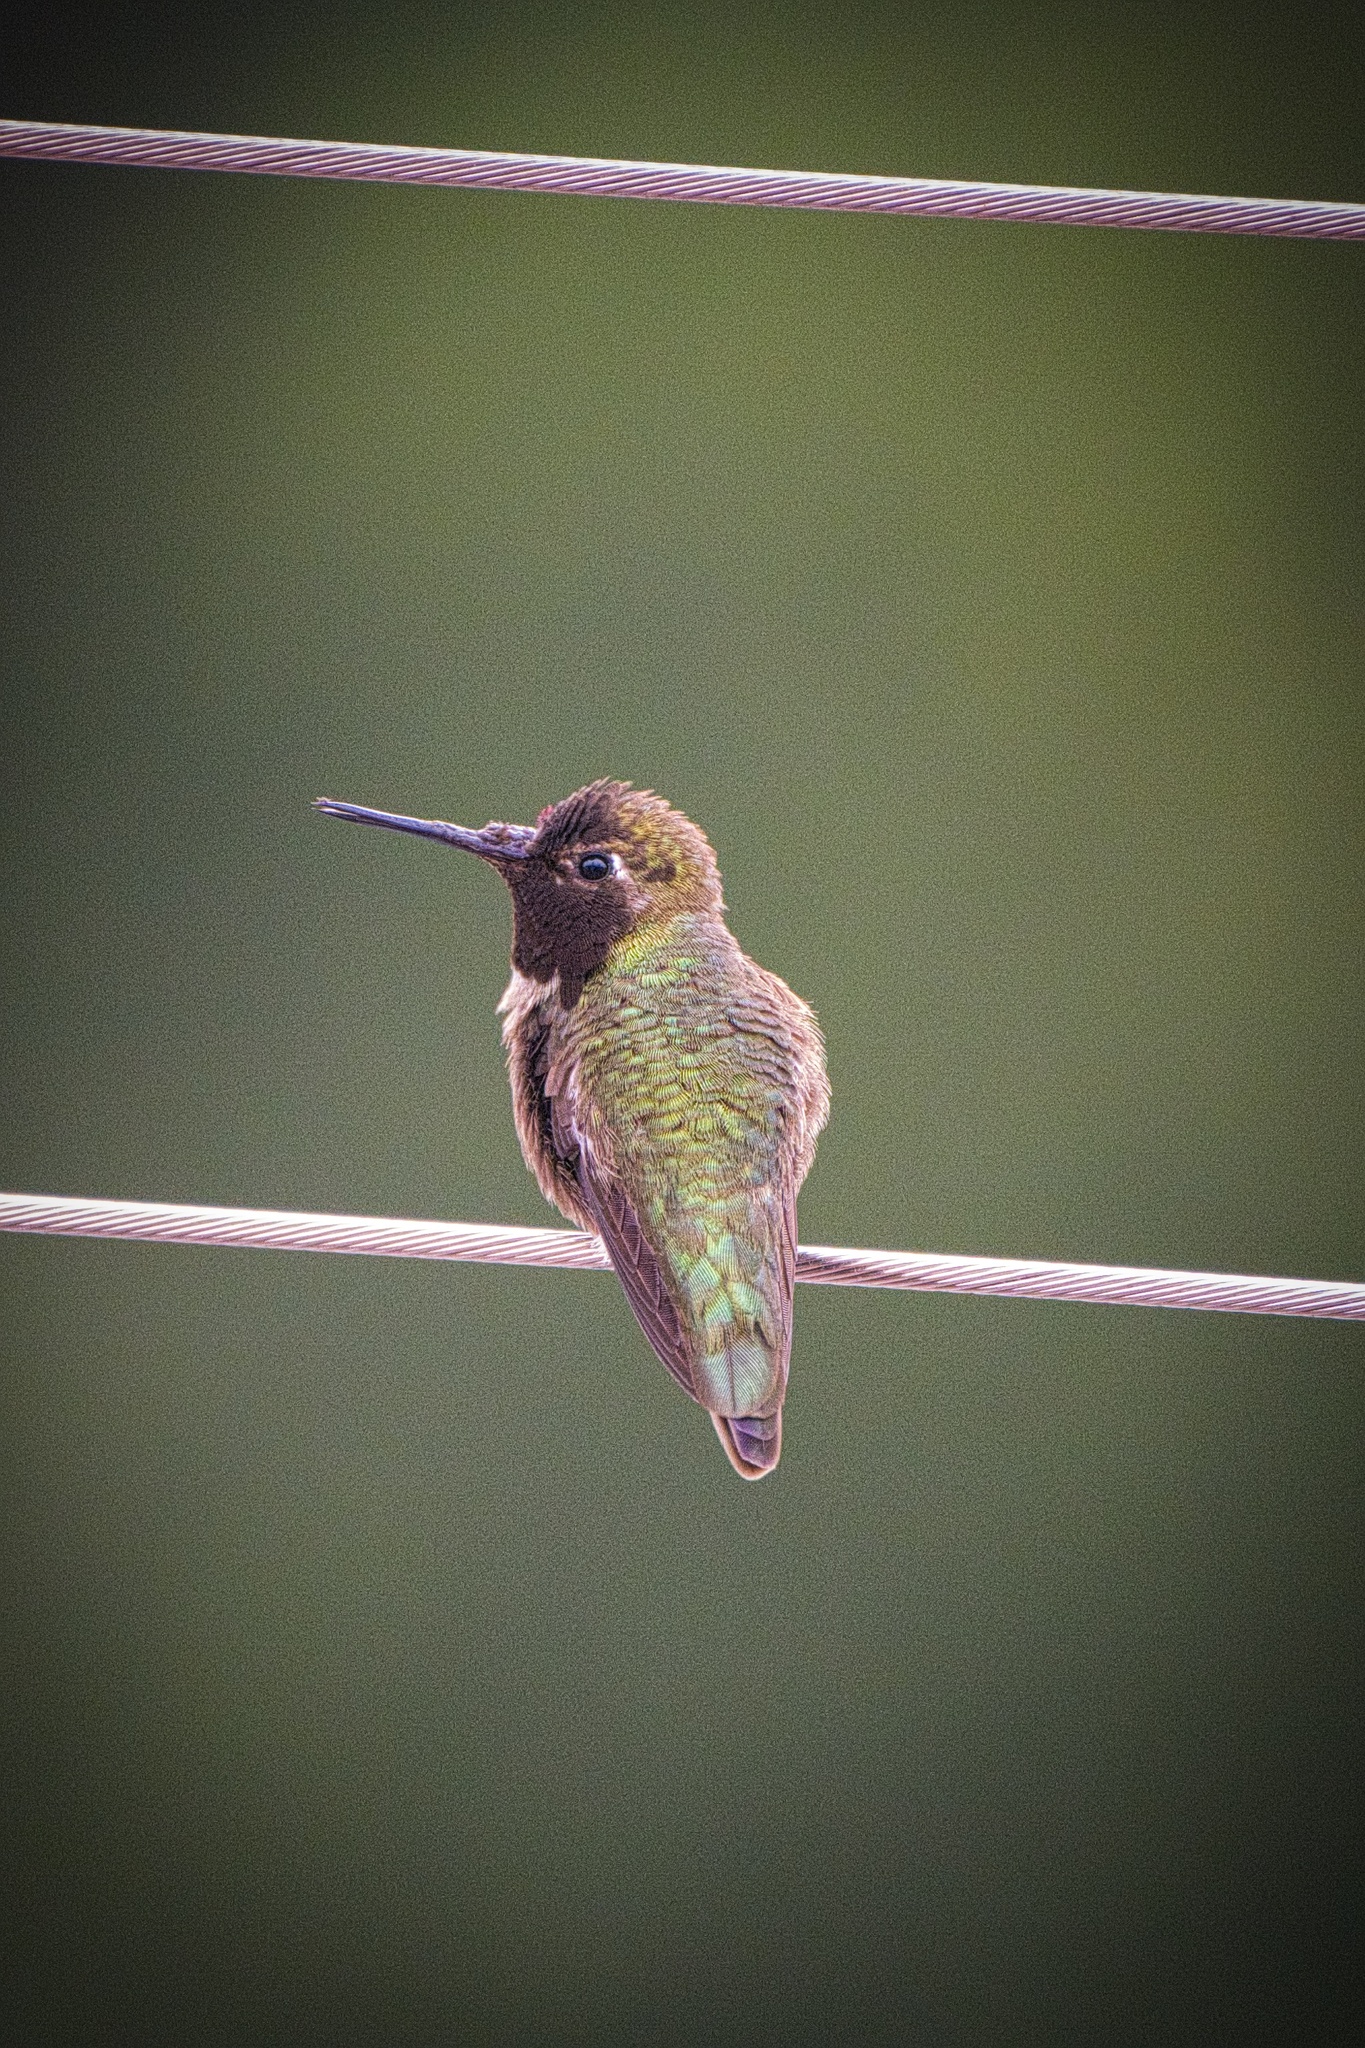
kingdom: Animalia
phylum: Chordata
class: Aves
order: Apodiformes
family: Trochilidae
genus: Calypte
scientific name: Calypte anna
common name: Anna's hummingbird
